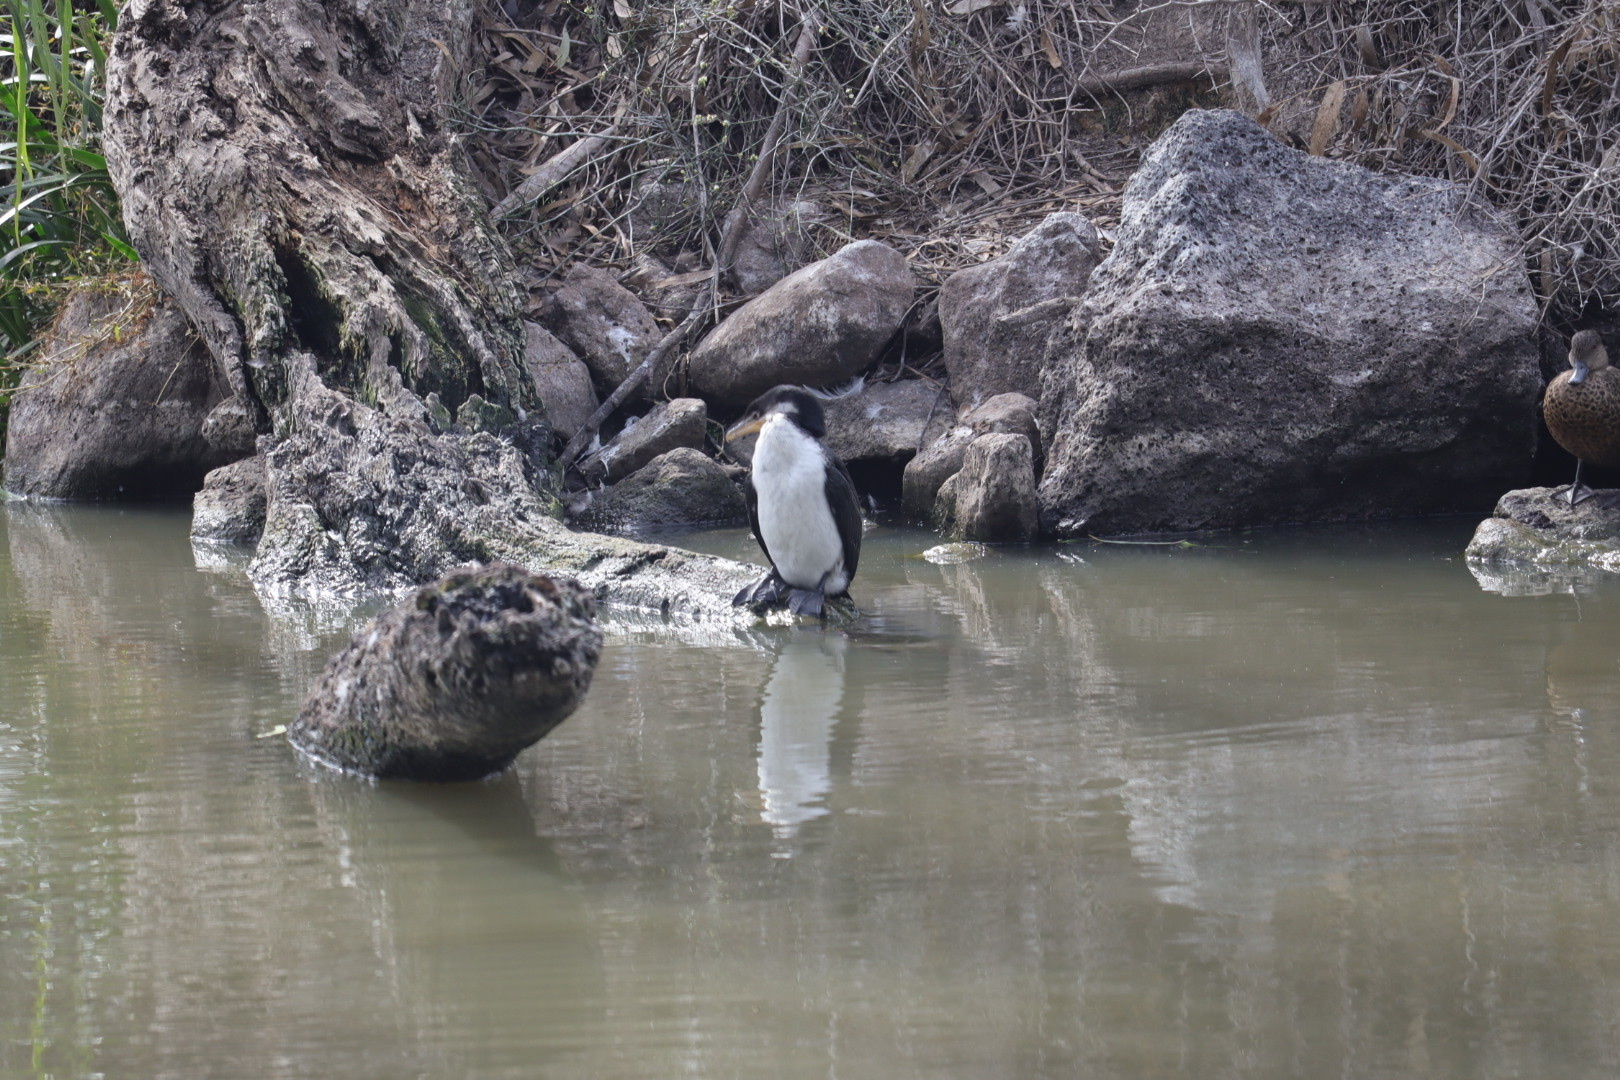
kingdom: Animalia
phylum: Chordata
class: Aves
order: Suliformes
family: Phalacrocoracidae
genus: Microcarbo
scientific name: Microcarbo melanoleucos
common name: Little pied cormorant
